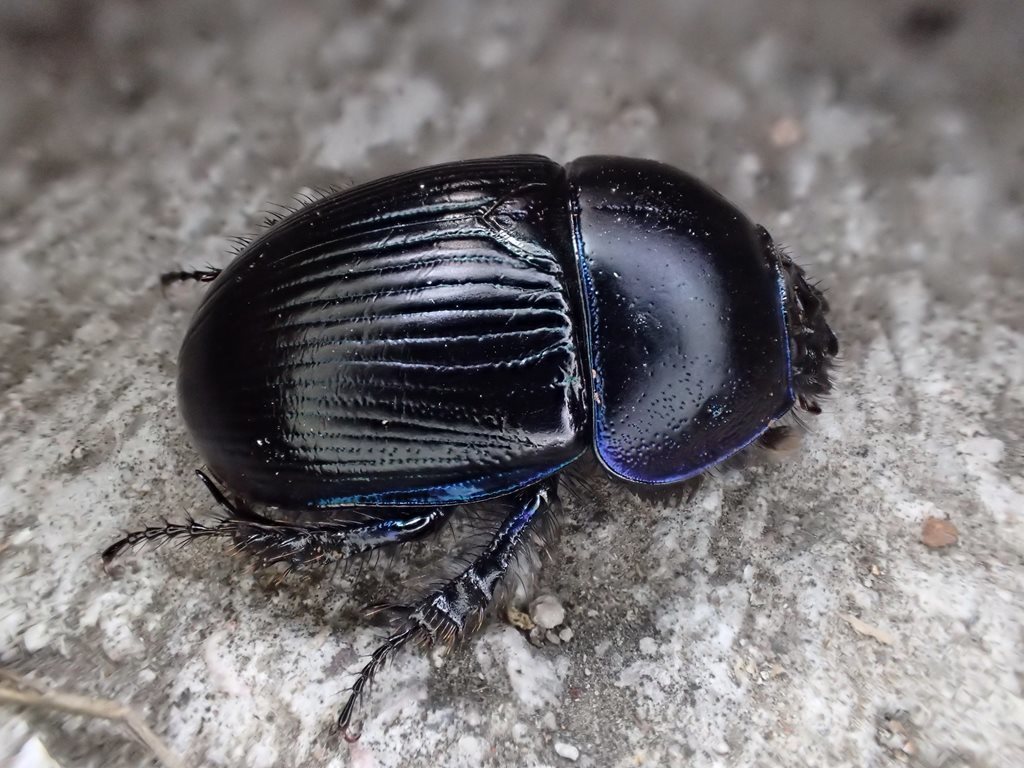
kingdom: Animalia
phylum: Arthropoda
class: Insecta
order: Coleoptera
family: Geotrupidae
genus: Geotrupes
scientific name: Geotrupes spiniger
